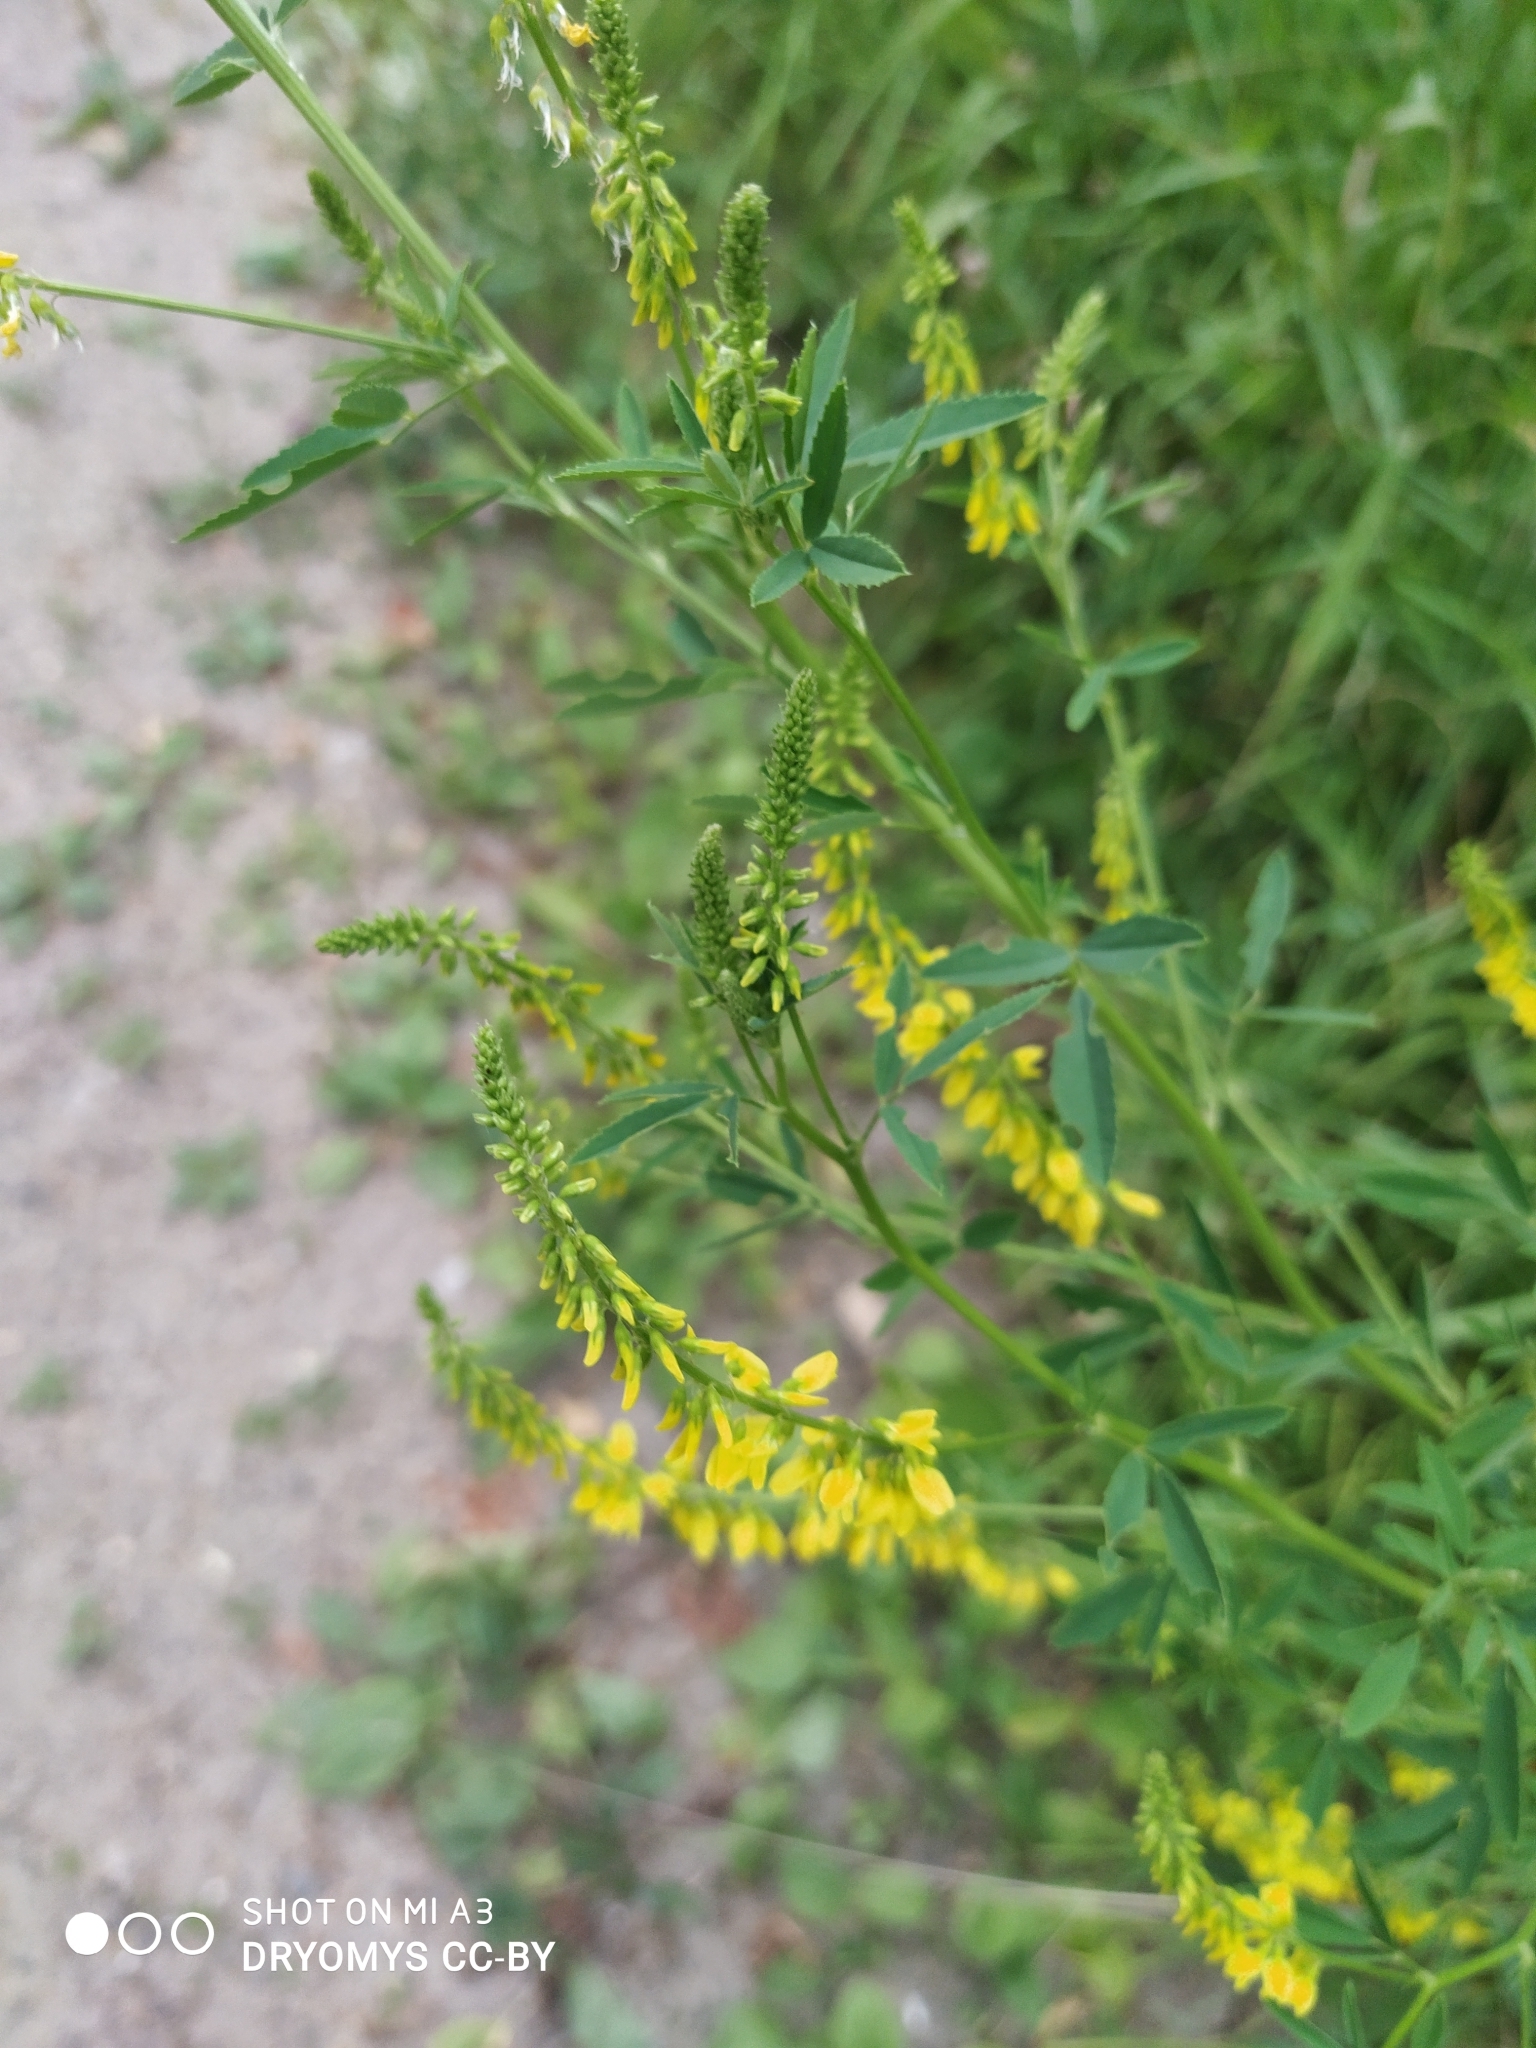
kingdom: Plantae
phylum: Tracheophyta
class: Magnoliopsida
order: Fabales
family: Fabaceae
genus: Melilotus
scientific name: Melilotus officinalis
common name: Sweetclover
